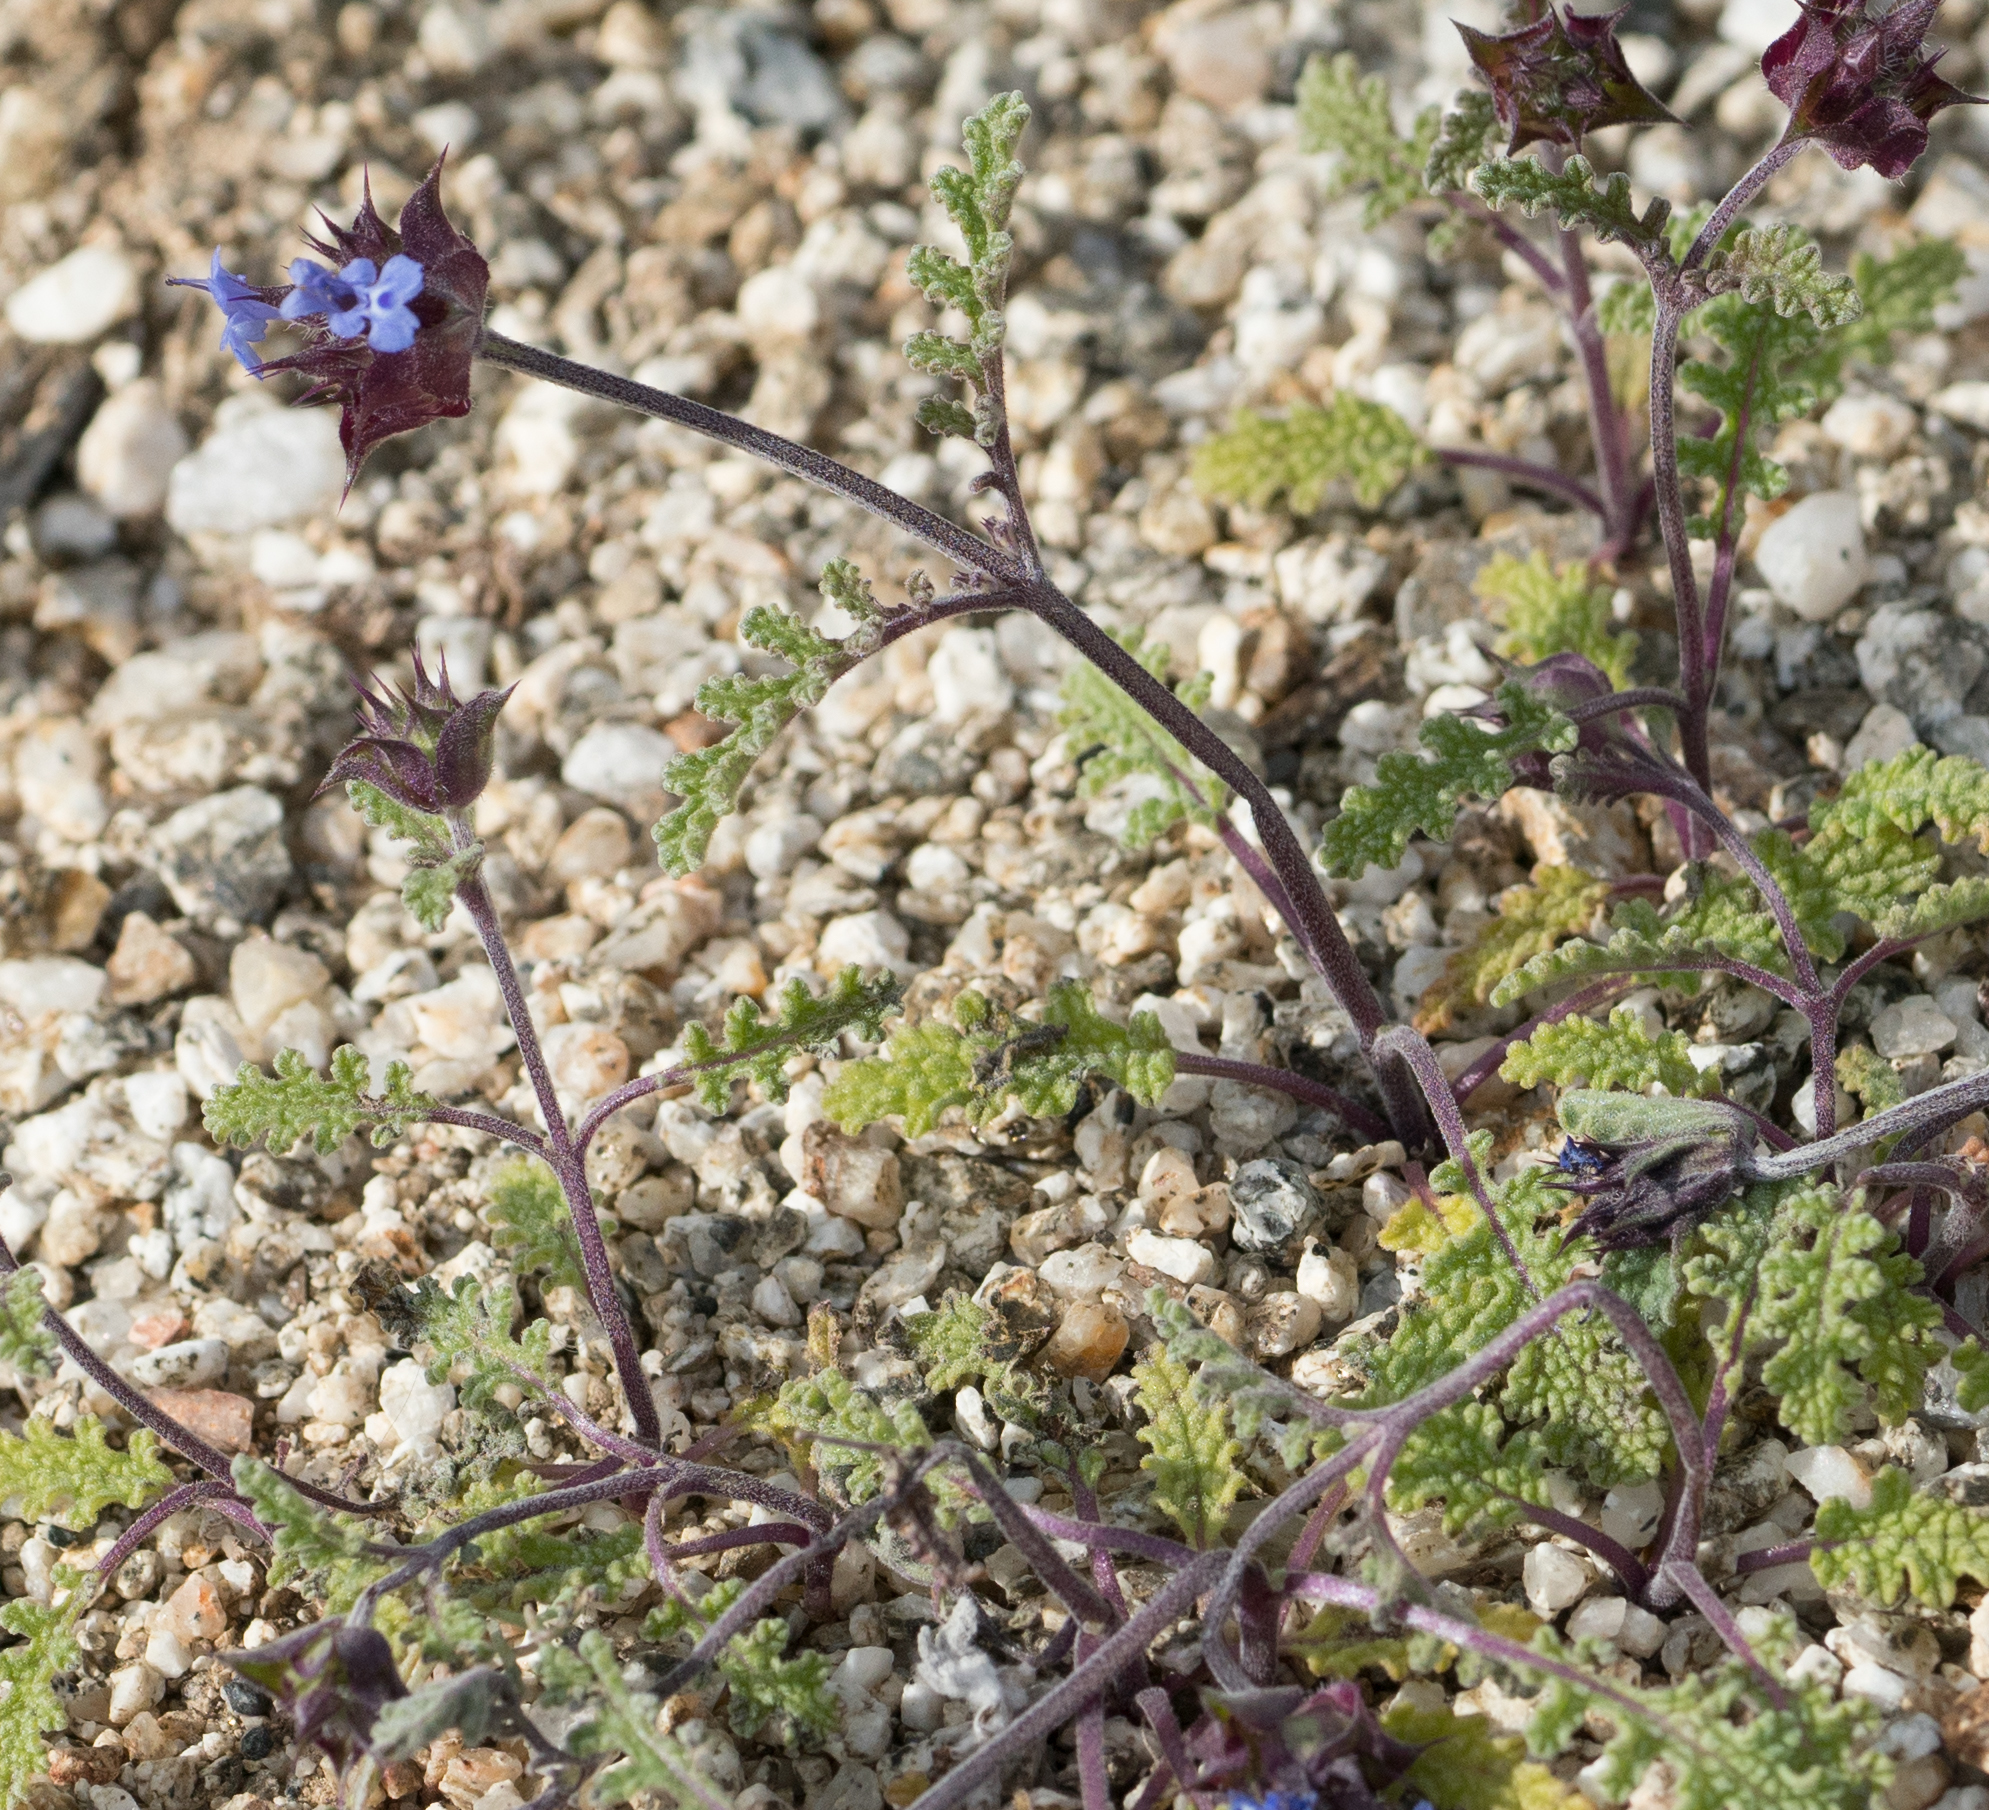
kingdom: Plantae
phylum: Tracheophyta
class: Magnoliopsida
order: Lamiales
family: Lamiaceae
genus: Salvia
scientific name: Salvia columbariae
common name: Chia
